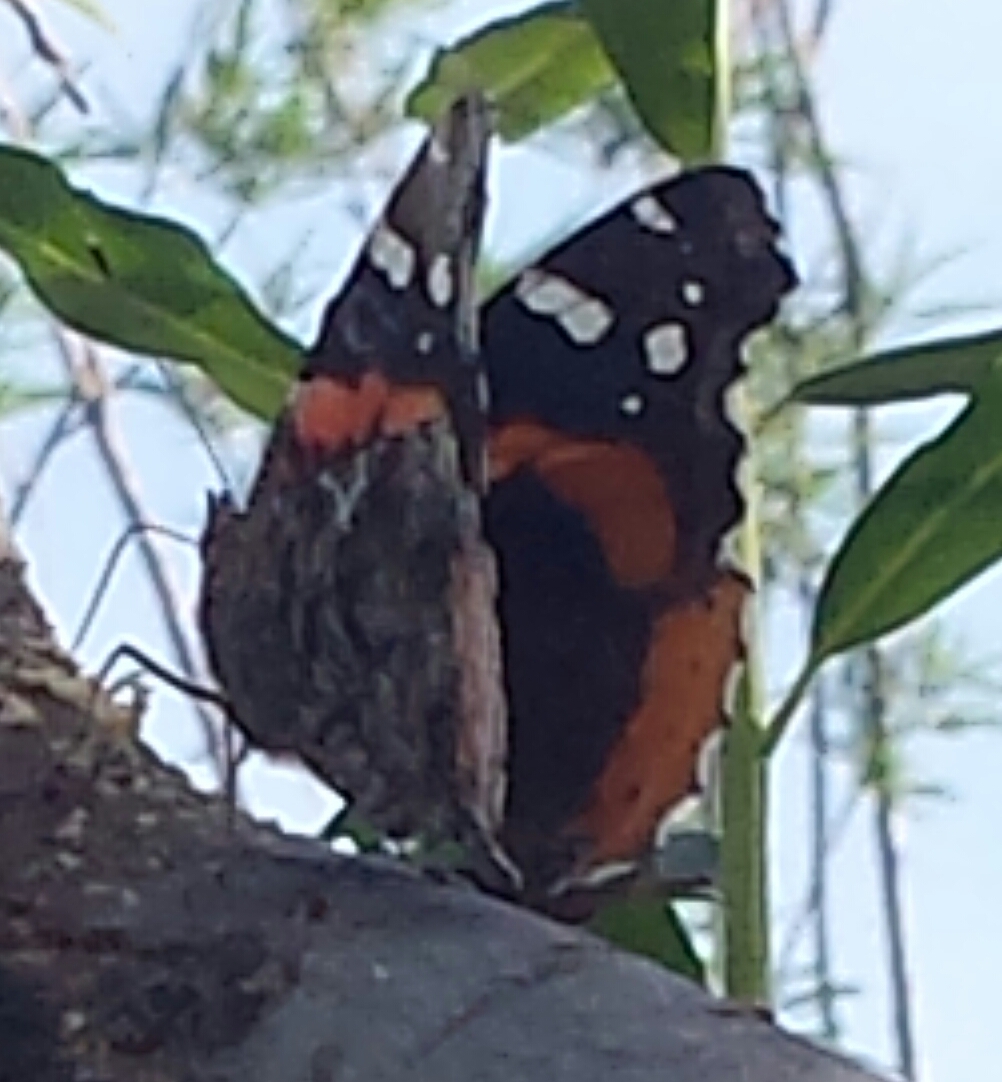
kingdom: Animalia
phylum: Arthropoda
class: Insecta
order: Lepidoptera
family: Nymphalidae
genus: Vanessa
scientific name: Vanessa atalanta
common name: Red admiral
